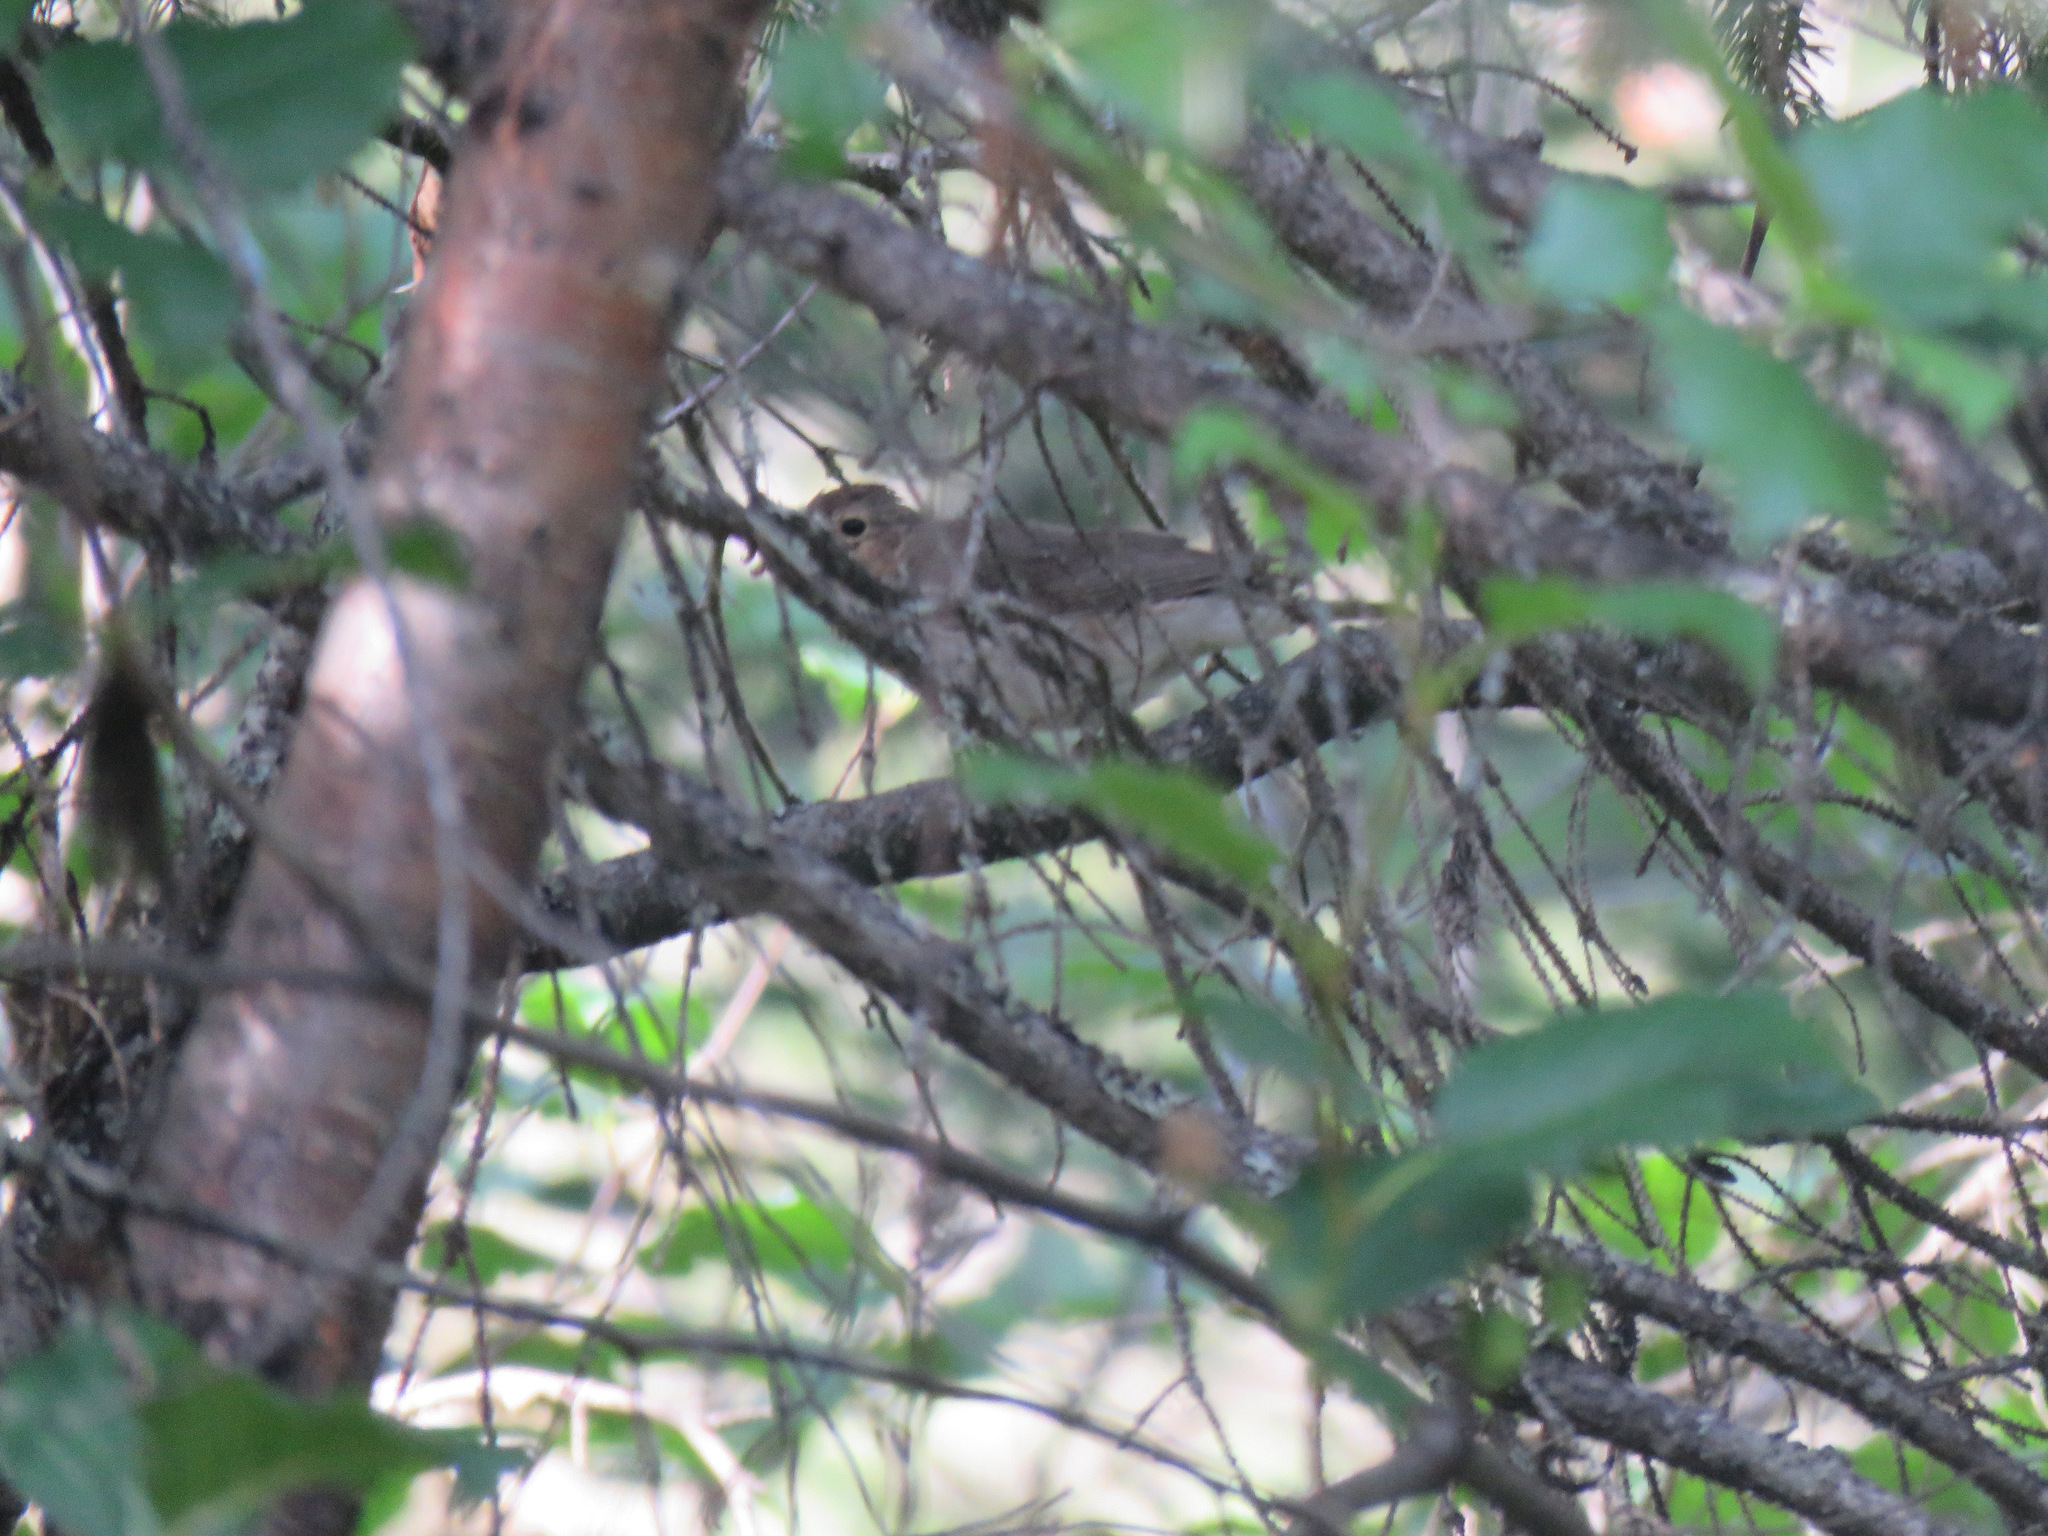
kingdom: Animalia
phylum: Chordata
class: Aves
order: Passeriformes
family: Turdidae
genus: Catharus
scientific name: Catharus ustulatus
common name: Swainson's thrush
